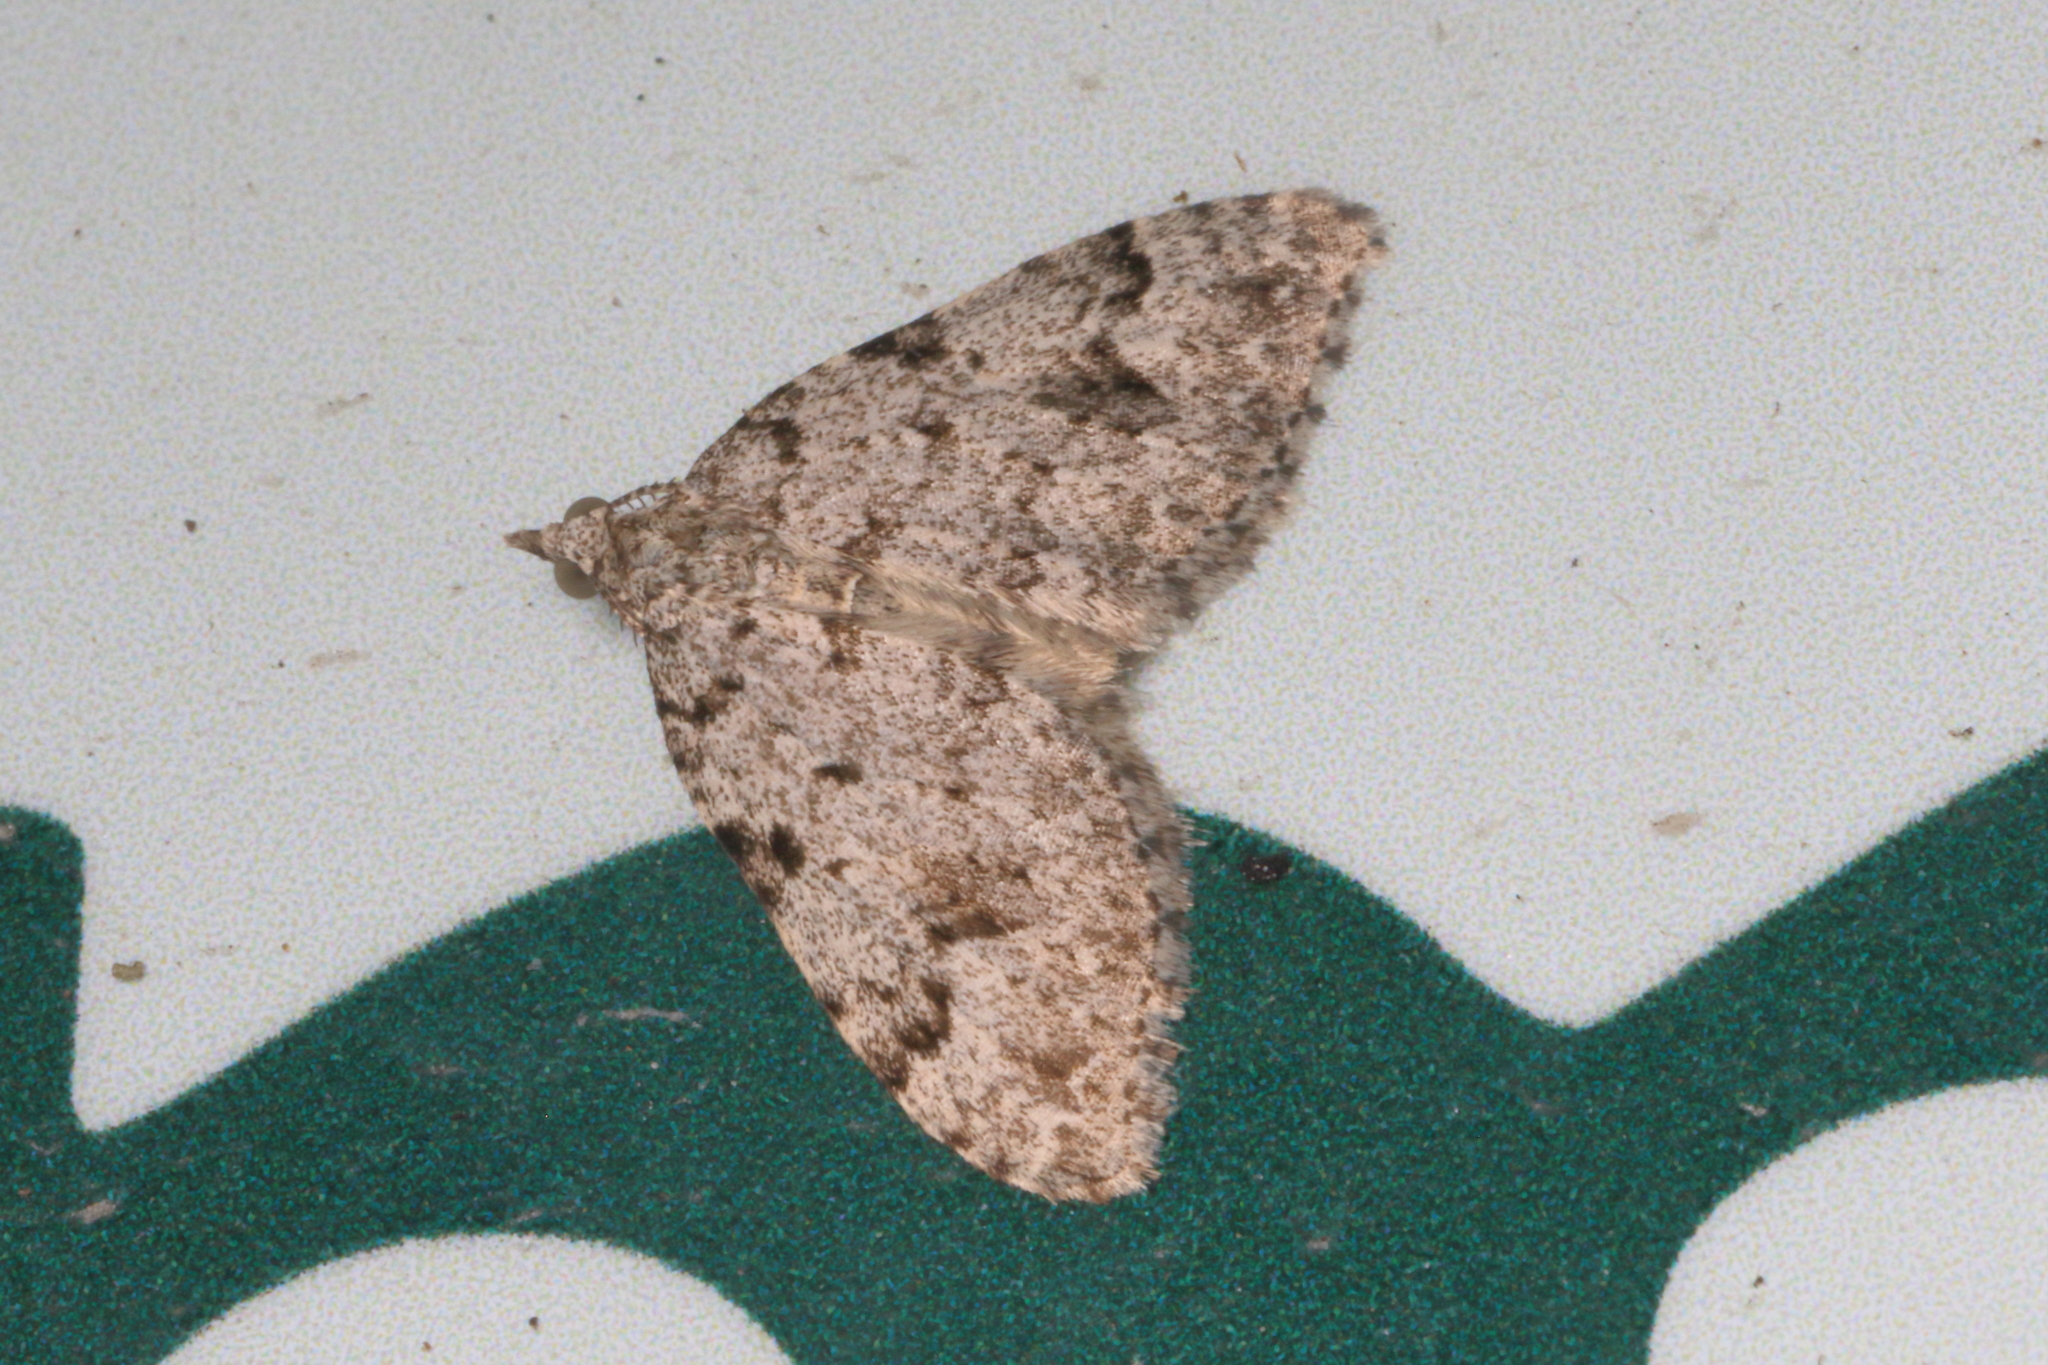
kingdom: Animalia
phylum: Arthropoda
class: Insecta
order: Lepidoptera
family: Geometridae
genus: Helastia
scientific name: Helastia cinerearia
